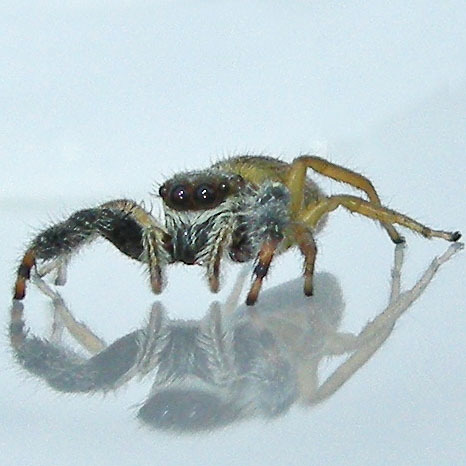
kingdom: Animalia
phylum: Arthropoda
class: Arachnida
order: Araneae
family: Salticidae
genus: Marpissa
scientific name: Marpissa formosa
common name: Short-bellied slender jumping spider
